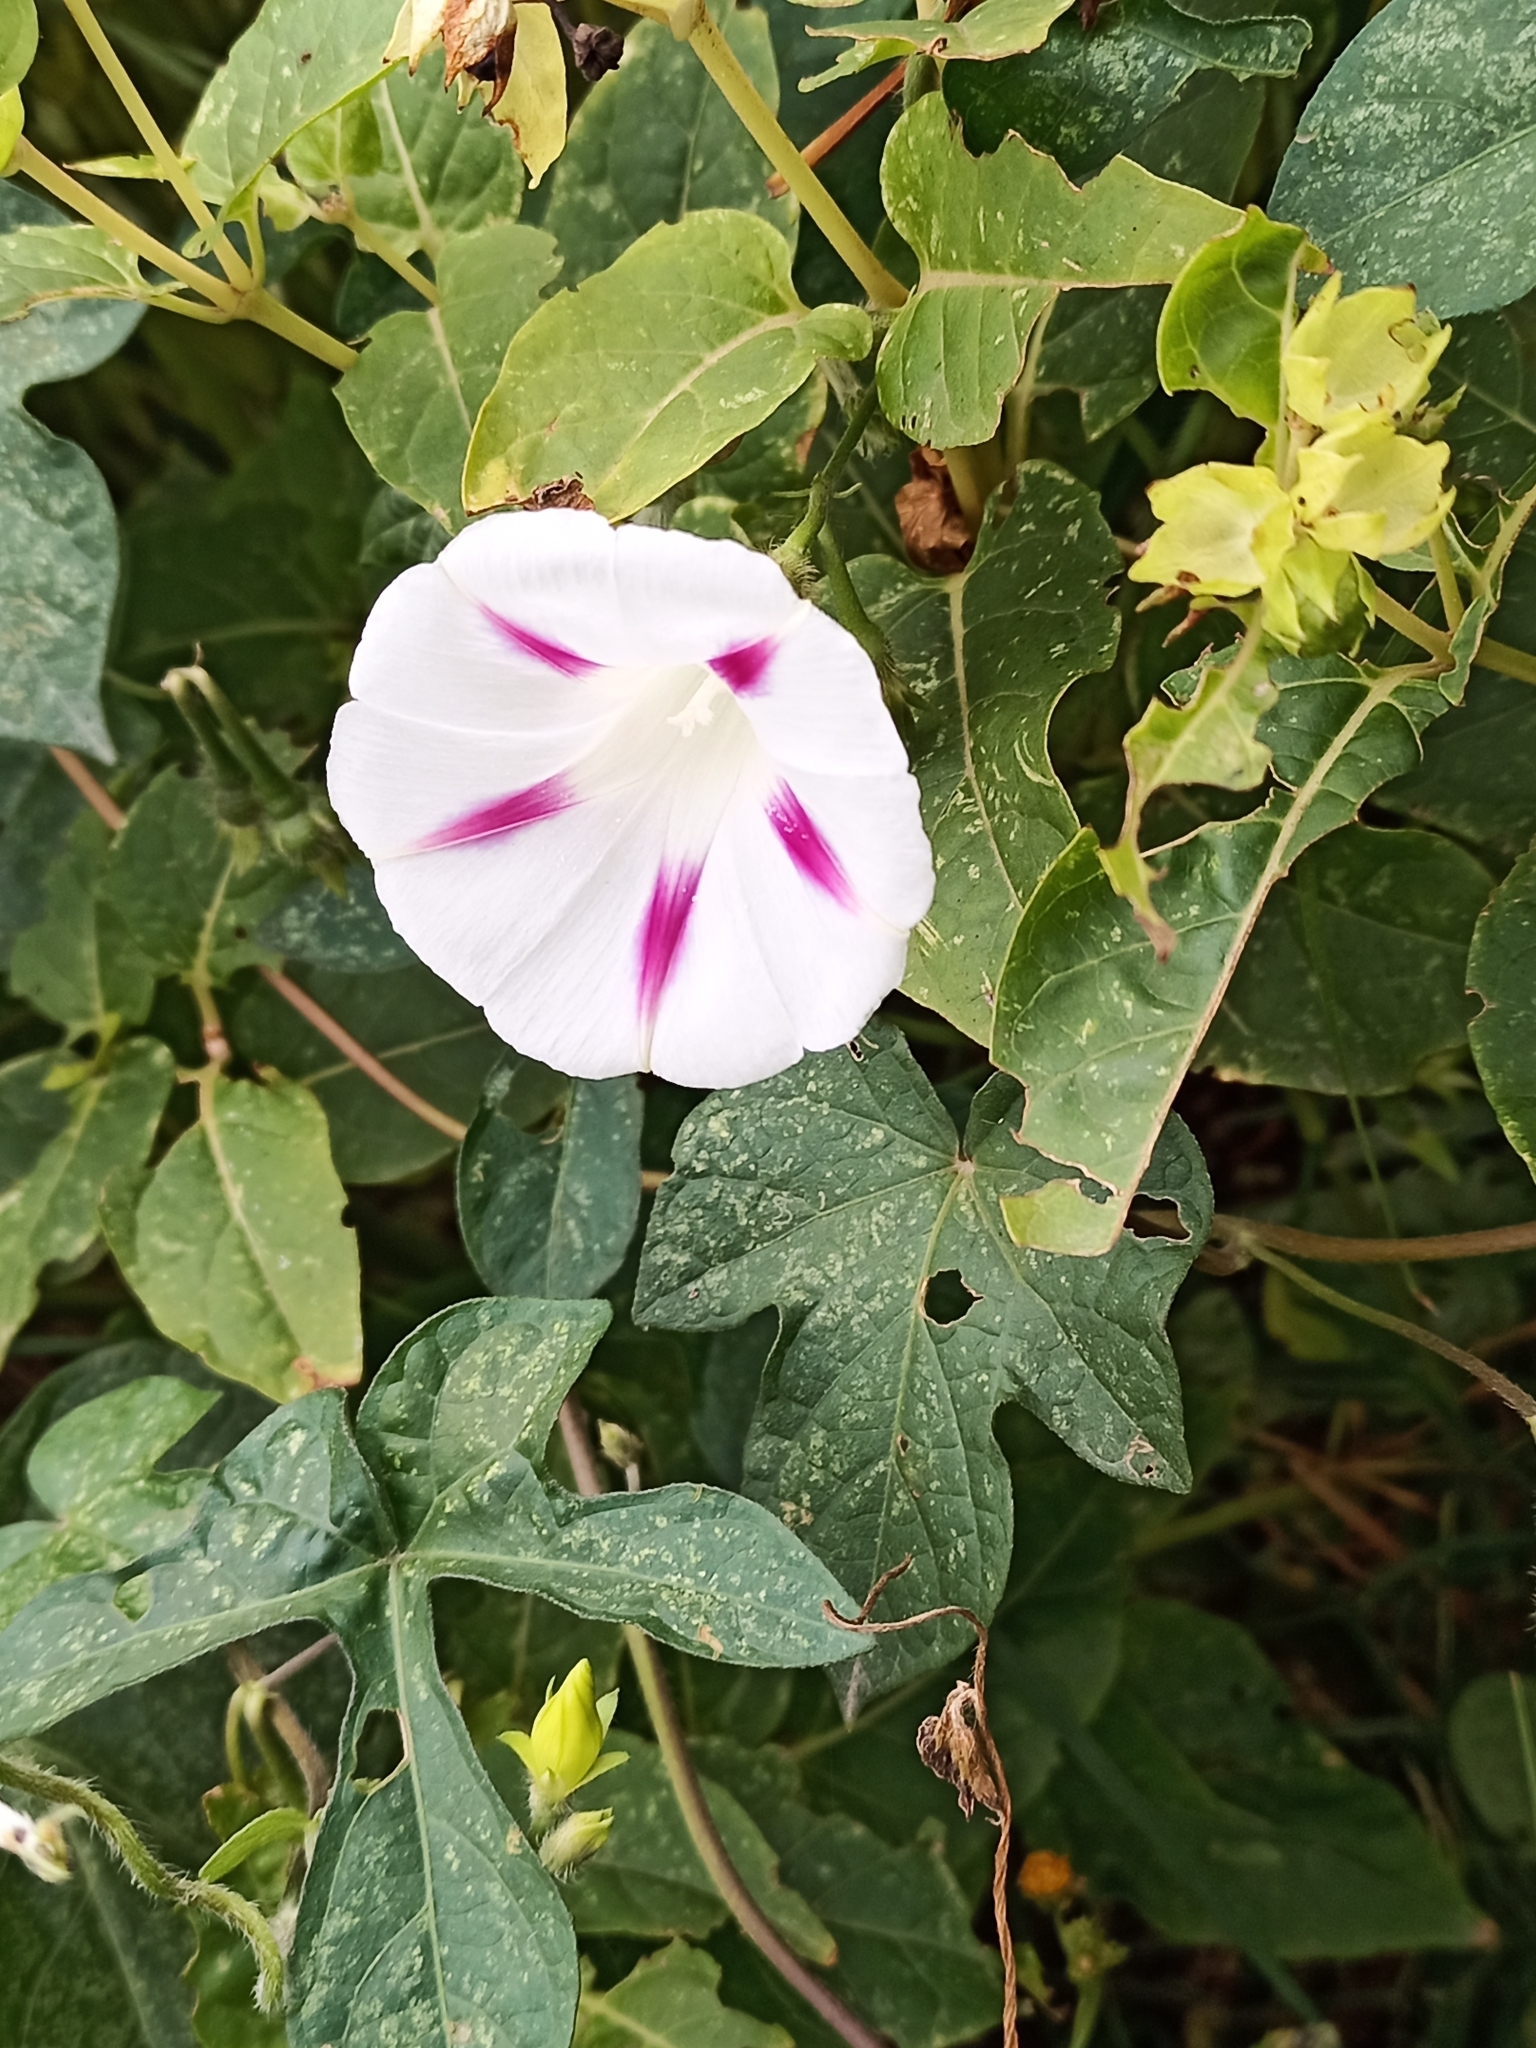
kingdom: Plantae
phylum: Tracheophyta
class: Magnoliopsida
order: Solanales
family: Convolvulaceae
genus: Ipomoea
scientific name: Ipomoea purpurea
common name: Common morning-glory
